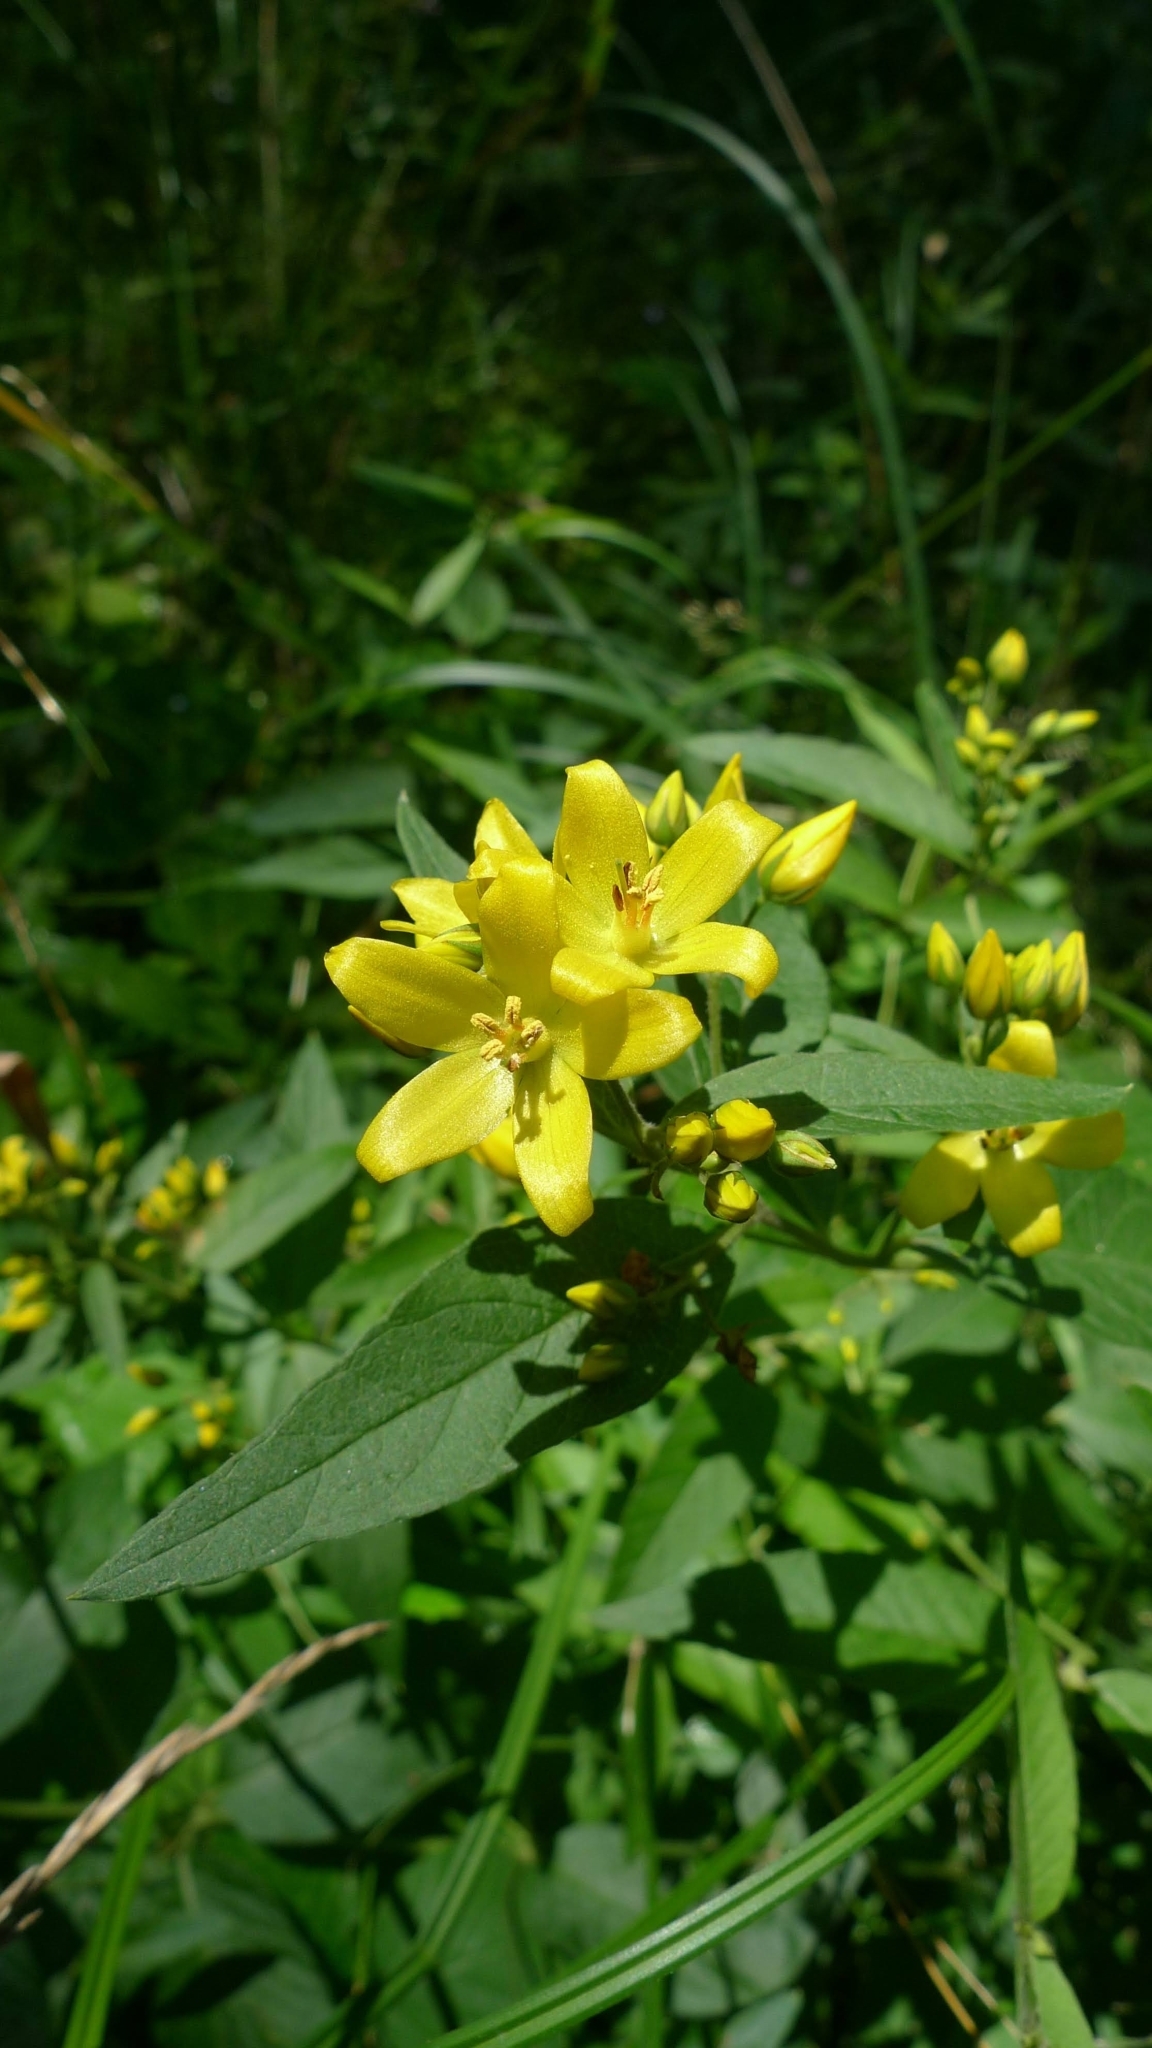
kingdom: Plantae
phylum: Tracheophyta
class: Magnoliopsida
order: Ericales
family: Primulaceae
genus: Lysimachia
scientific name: Lysimachia vulgaris
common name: Yellow loosestrife
